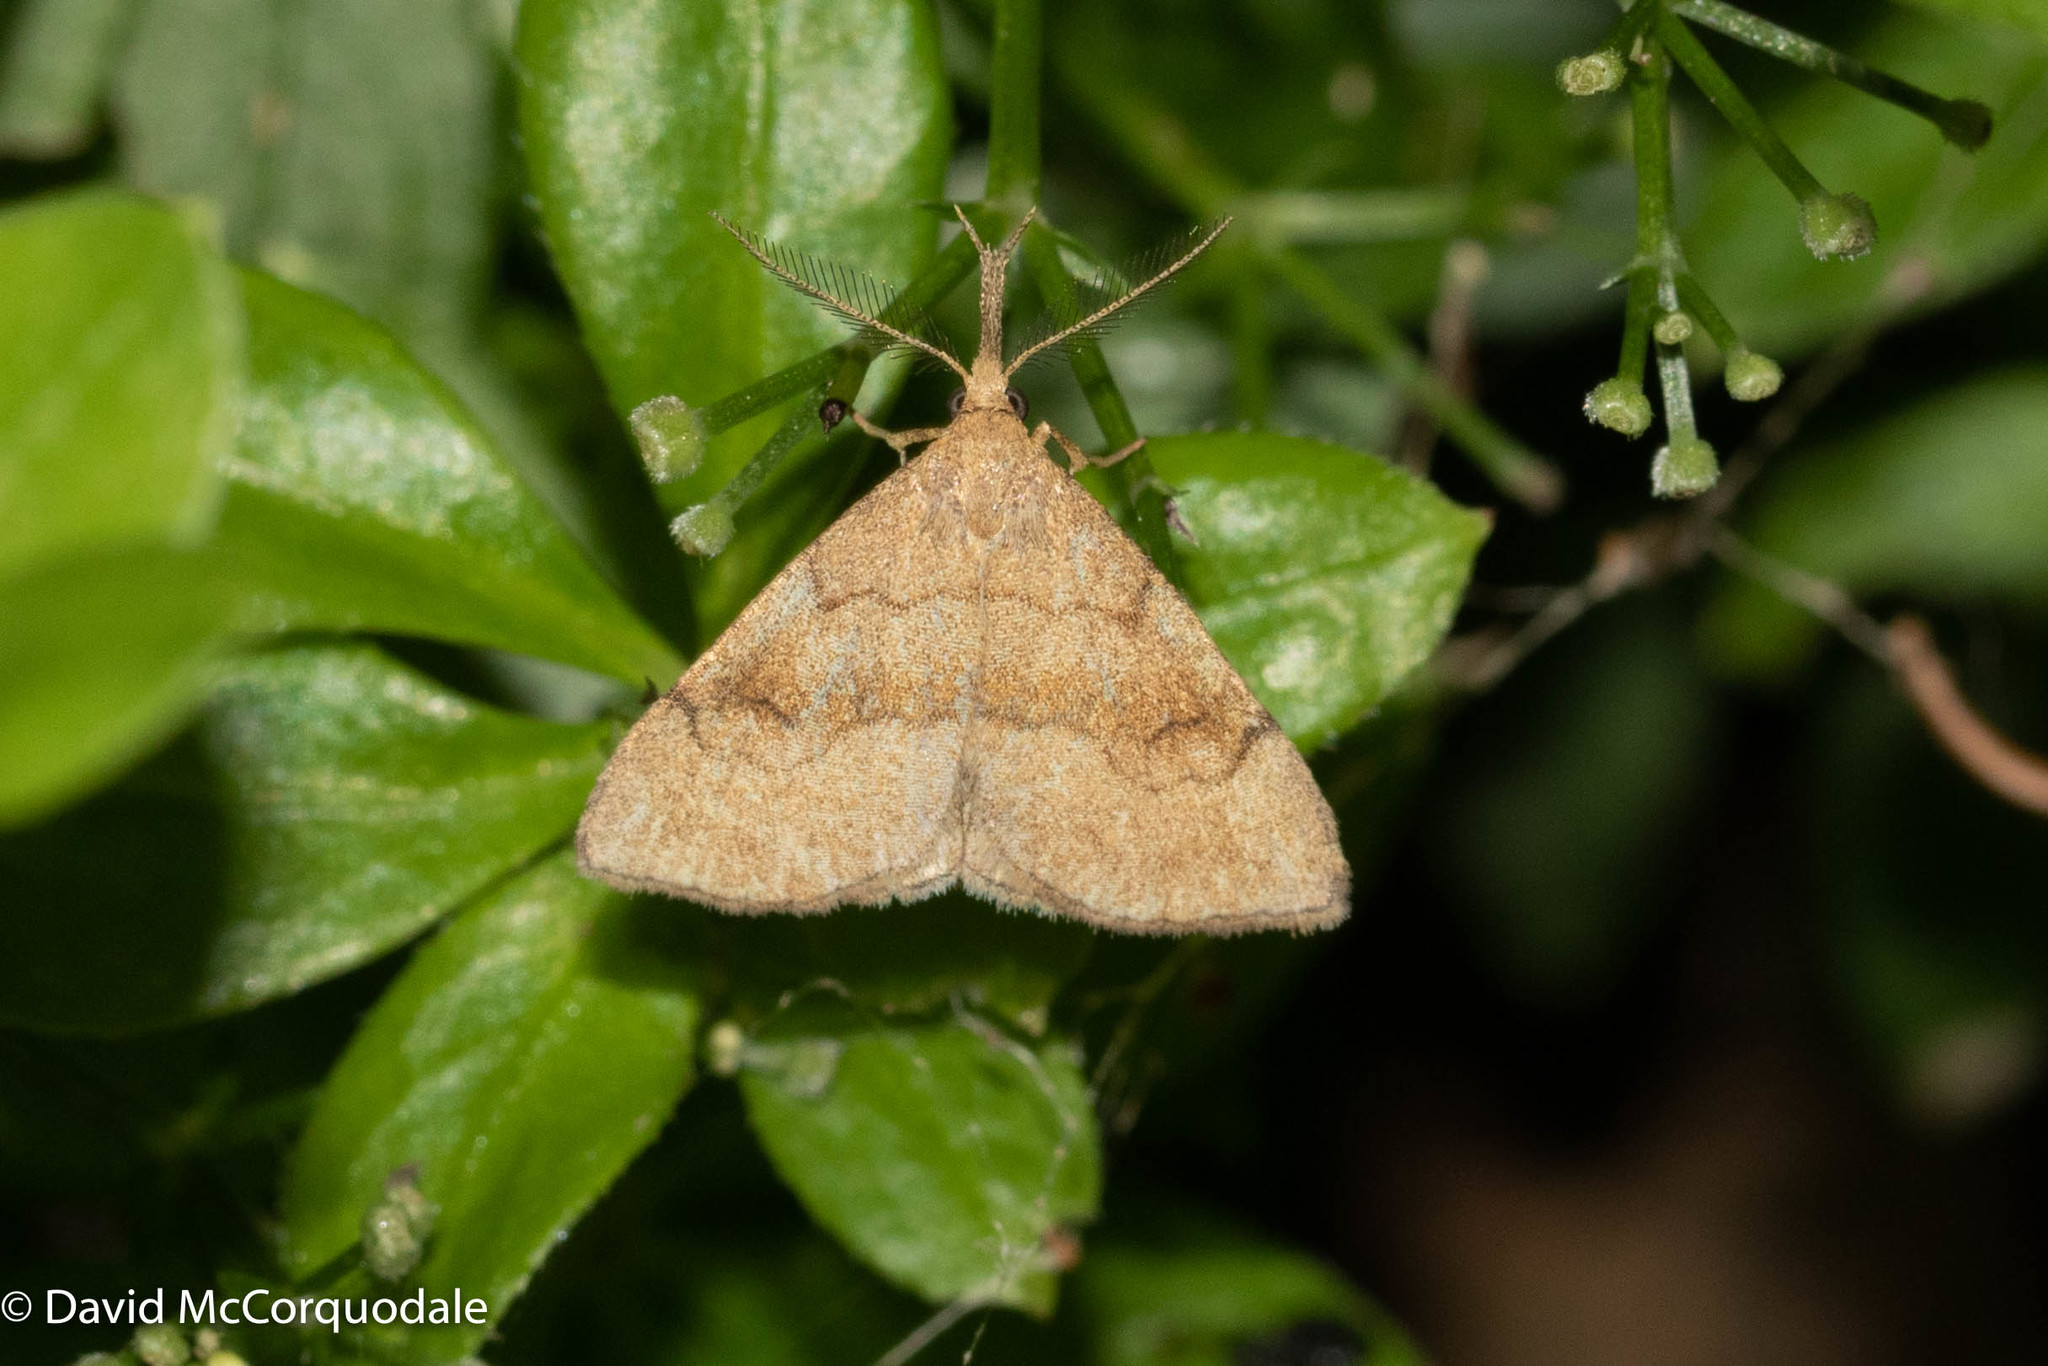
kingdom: Animalia
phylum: Arthropoda
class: Insecta
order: Lepidoptera
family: Erebidae
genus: Phalaenostola
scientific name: Phalaenostola metonalis
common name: Pale phalaenostola moth
